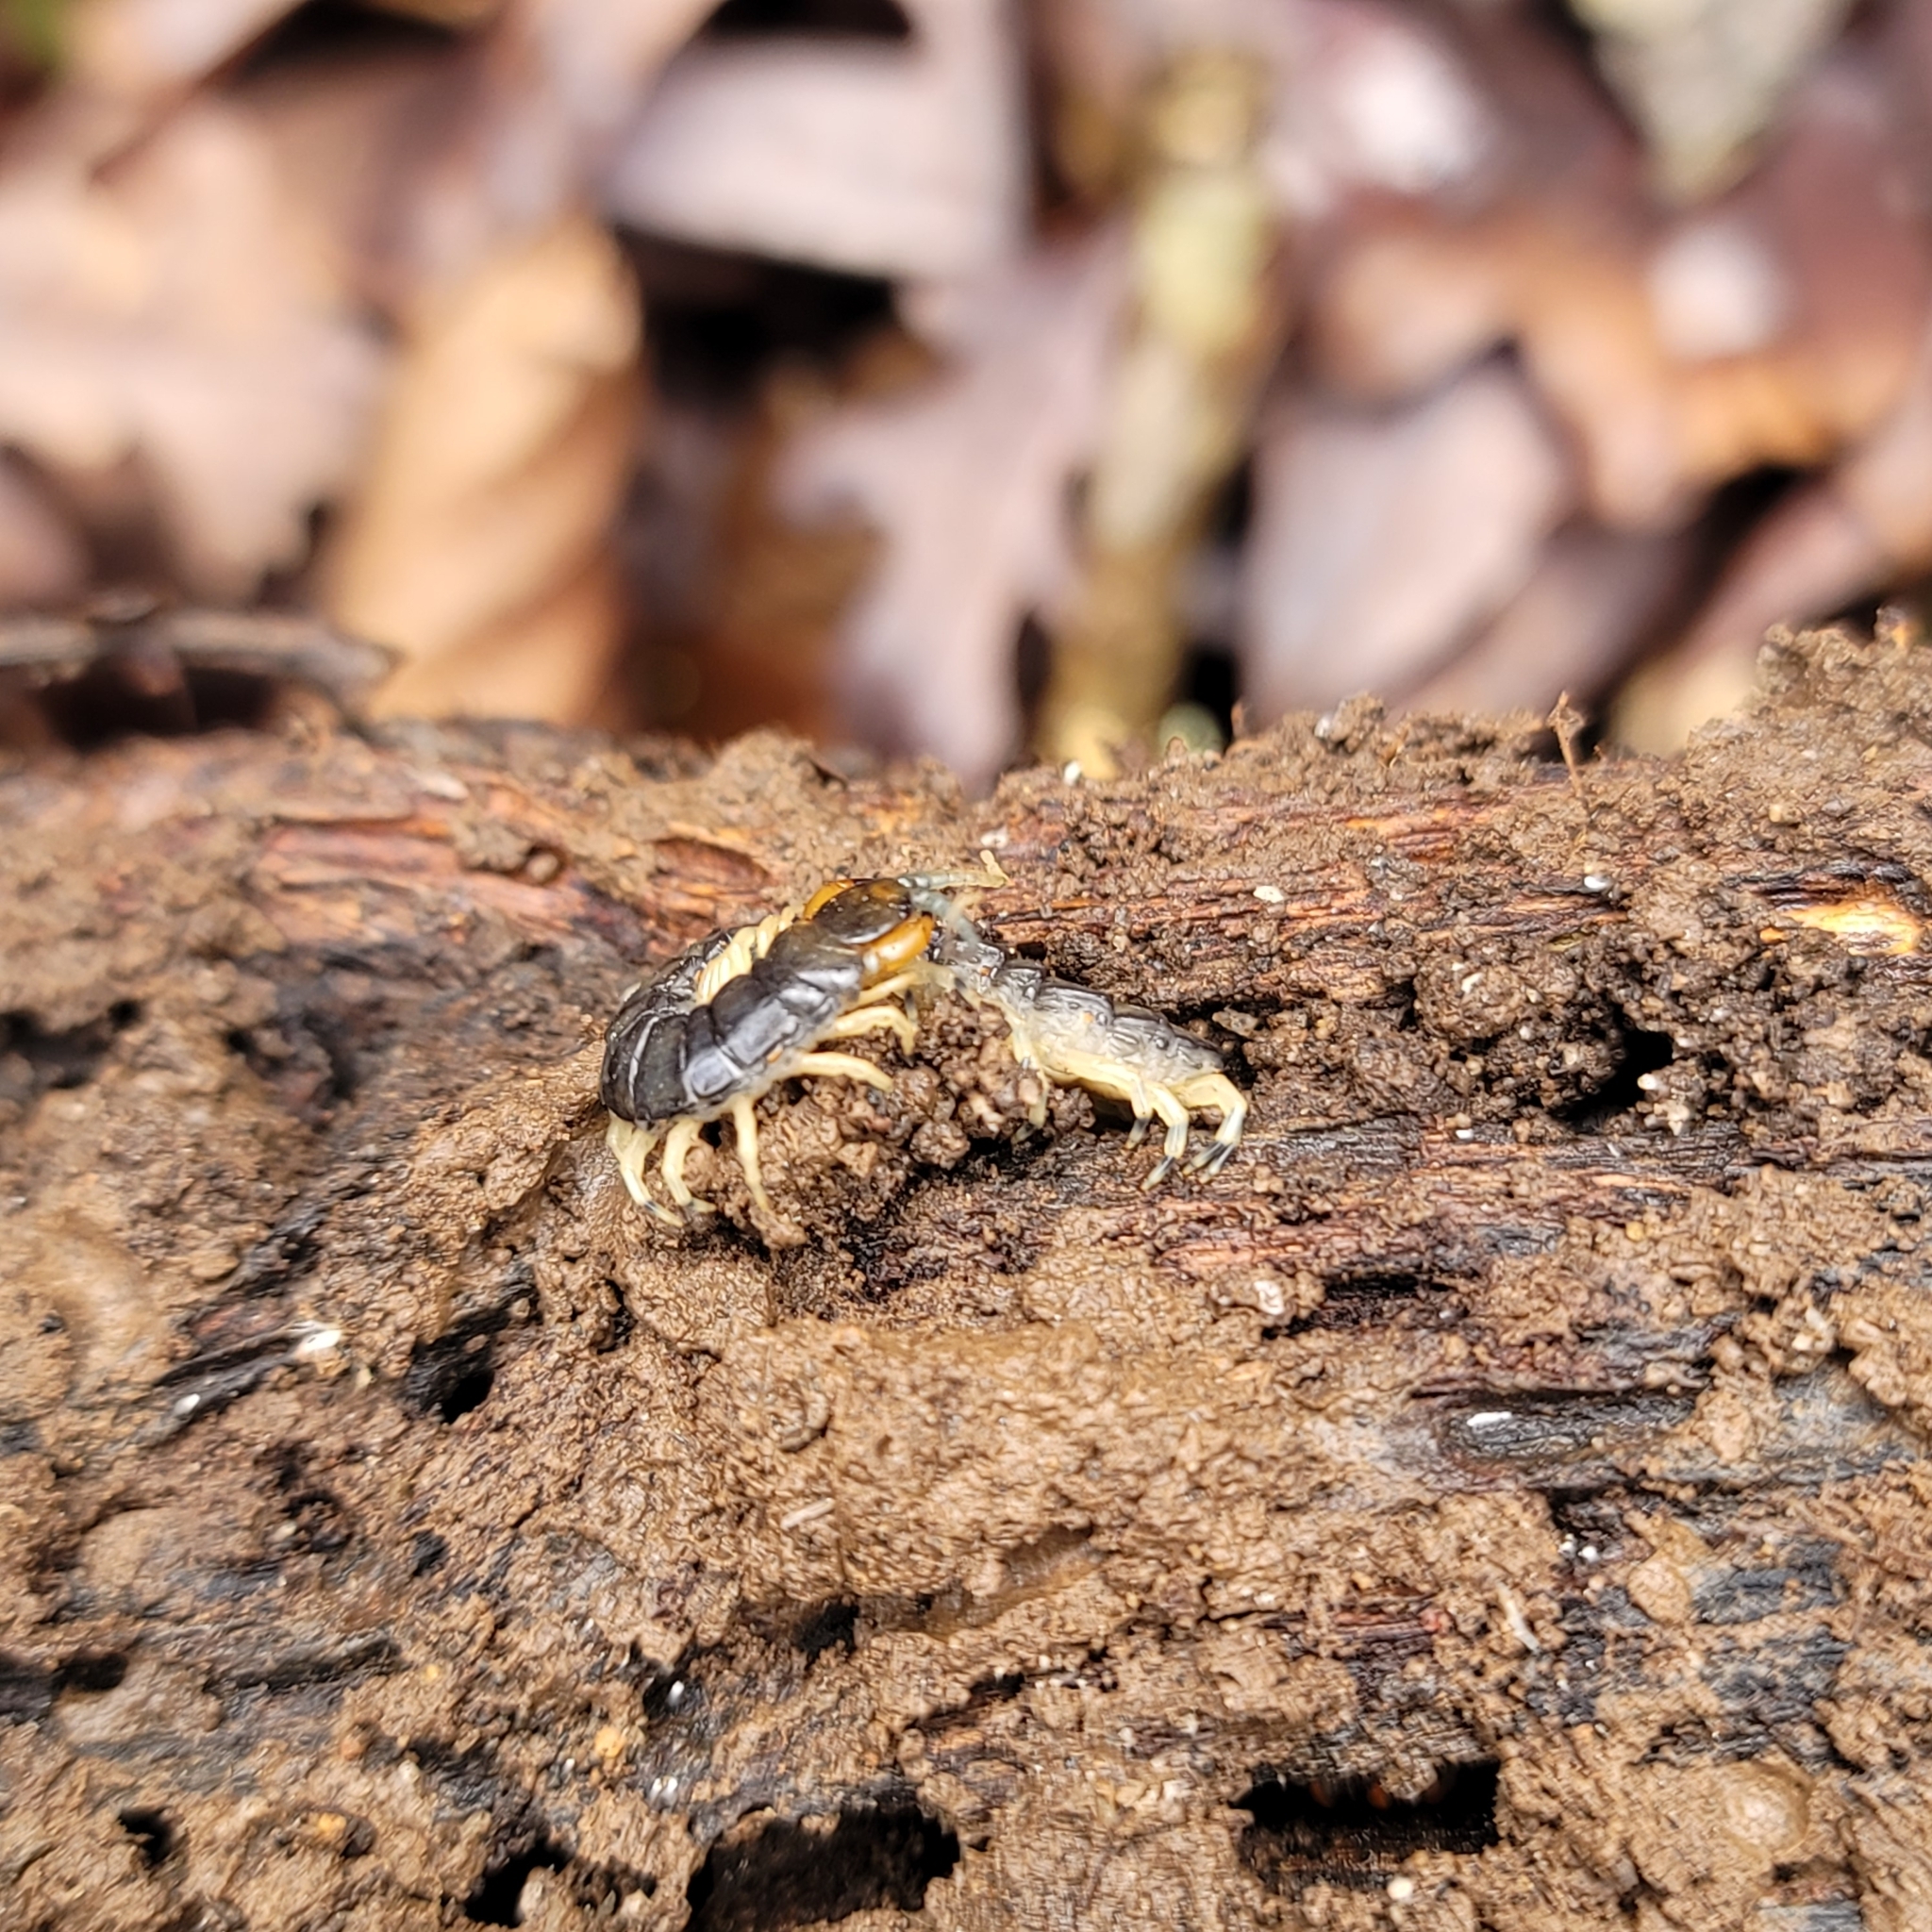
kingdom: Animalia
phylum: Arthropoda
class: Chilopoda
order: Scolopendromorpha
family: Scolopendridae
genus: Hemiscolopendra
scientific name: Hemiscolopendra marginata
